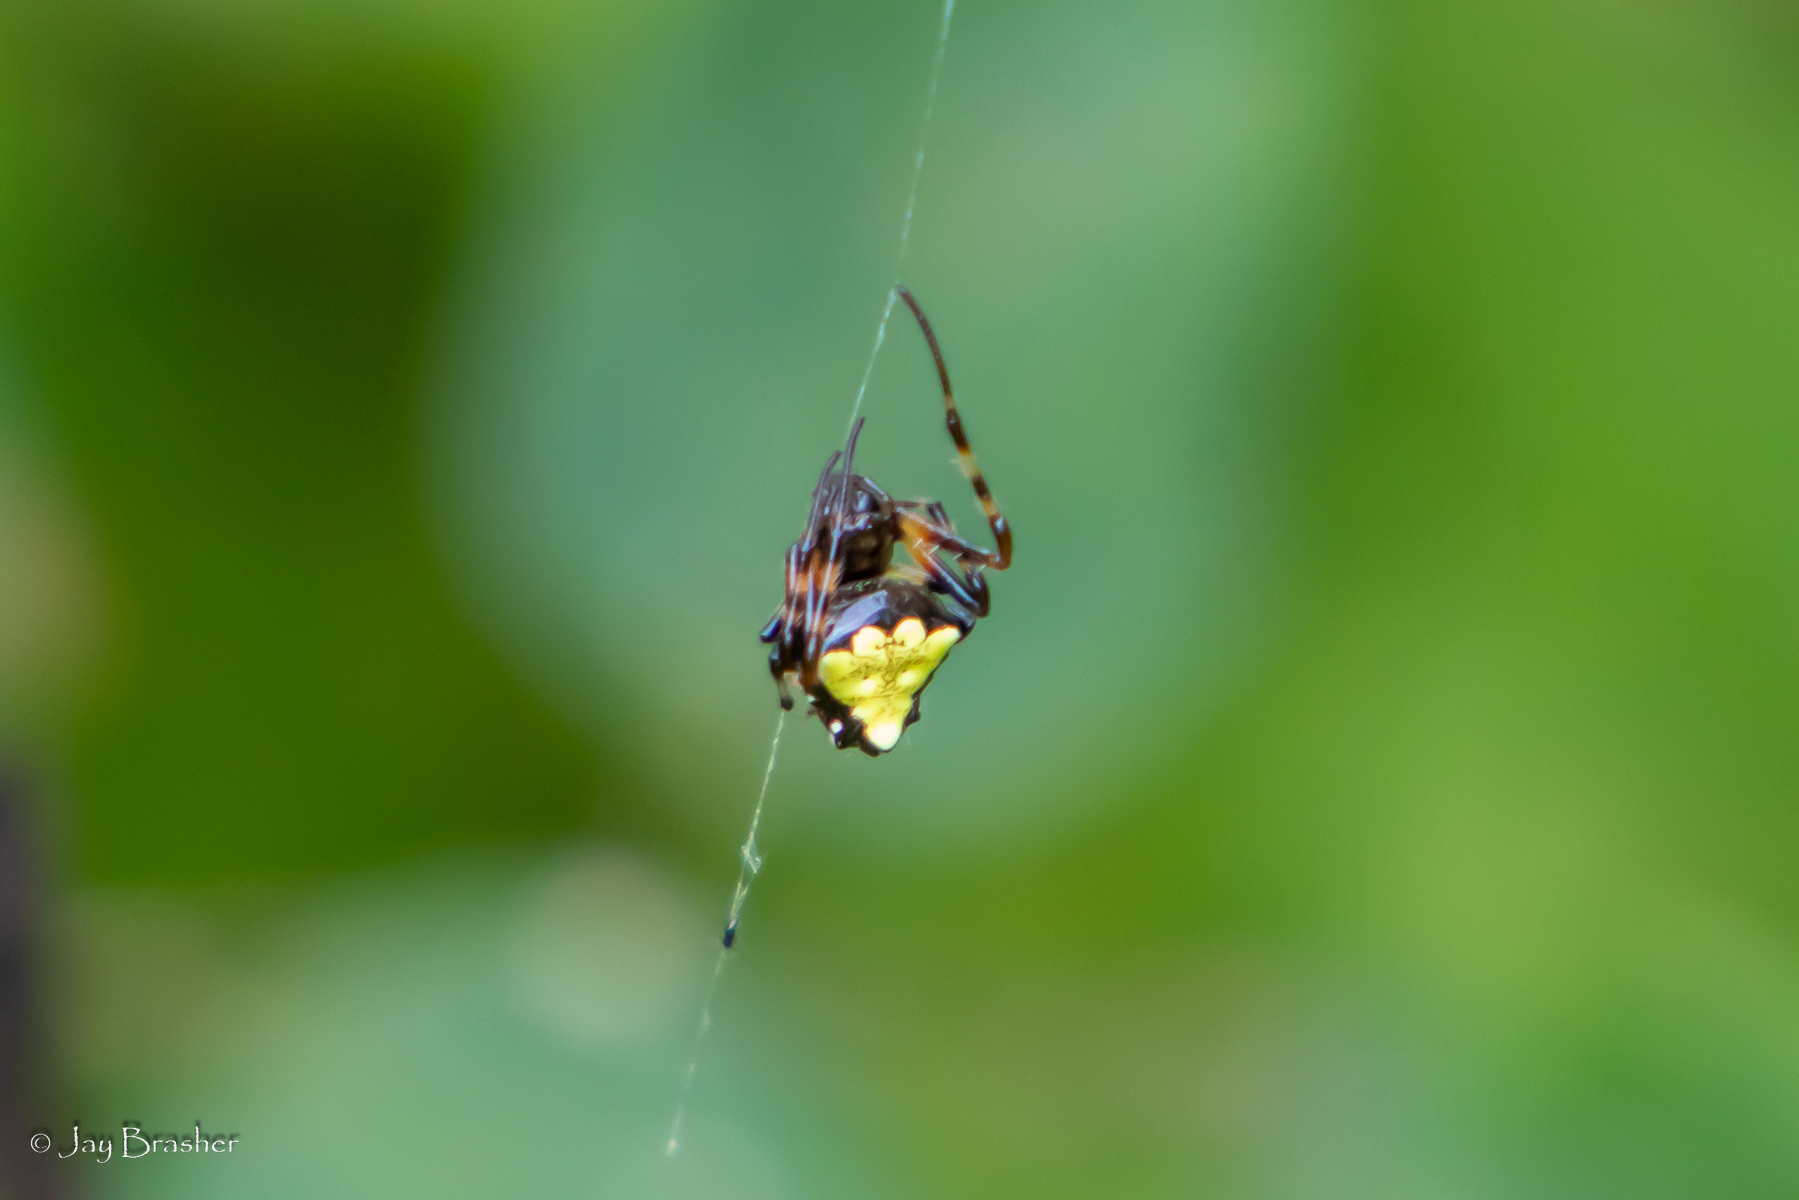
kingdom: Animalia
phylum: Arthropoda
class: Arachnida
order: Araneae
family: Araneidae
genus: Verrucosa
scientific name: Verrucosa arenata
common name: Orb weavers
